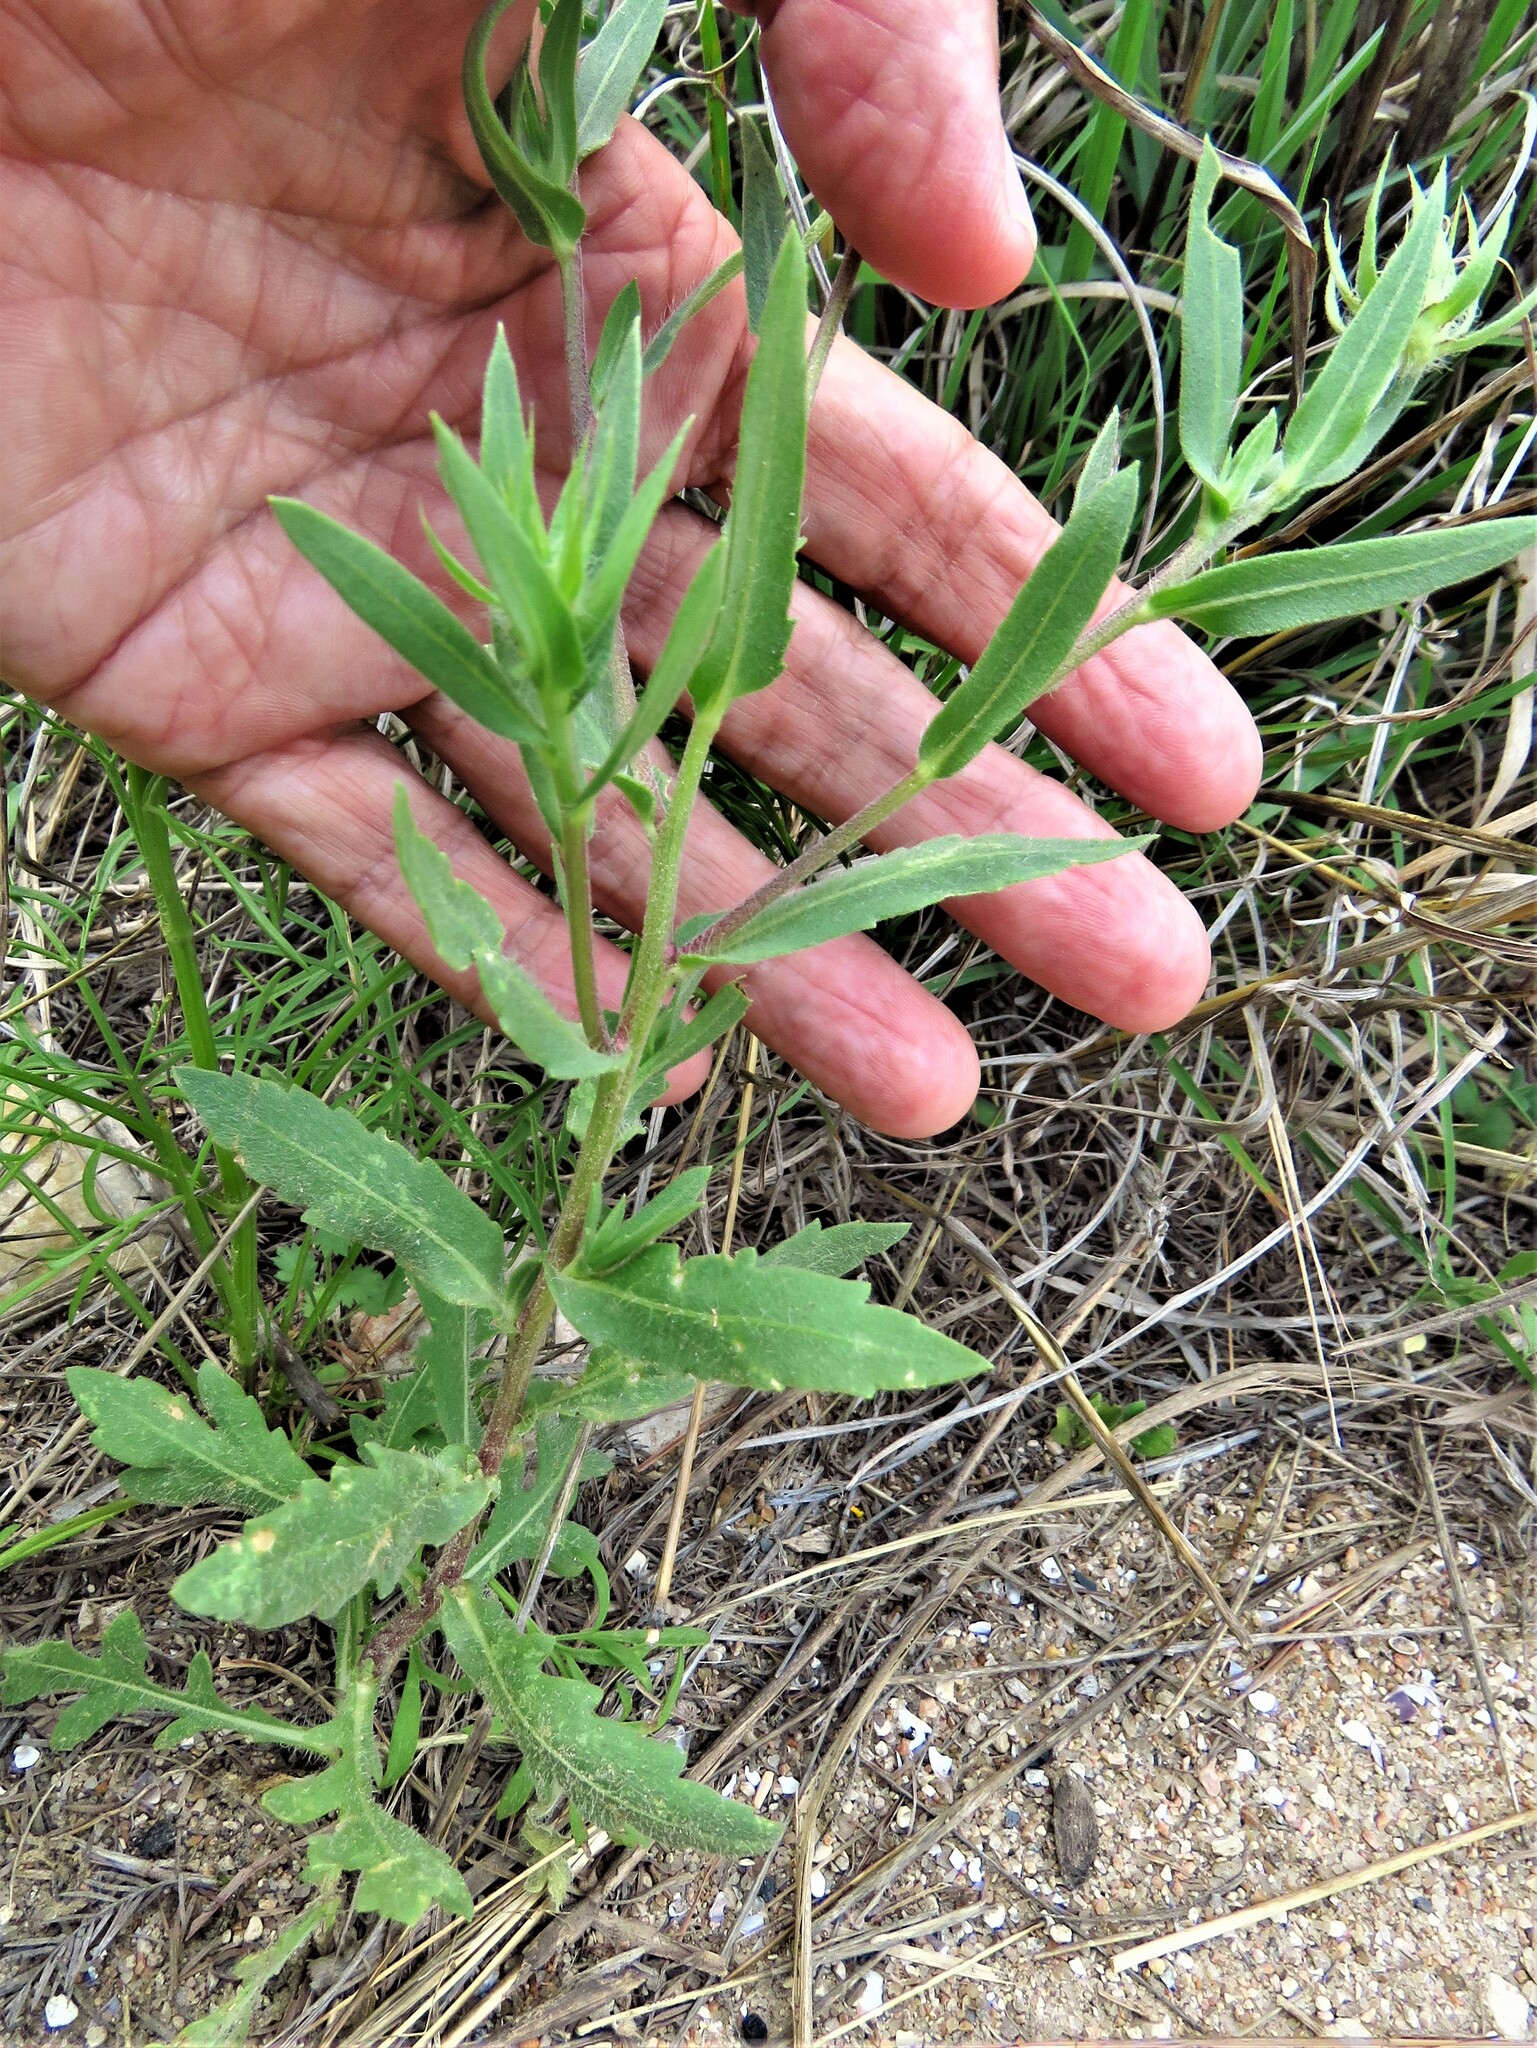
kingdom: Plantae
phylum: Tracheophyta
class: Magnoliopsida
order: Asterales
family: Asteraceae
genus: Gaillardia
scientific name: Gaillardia pulchella
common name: Firewheel
